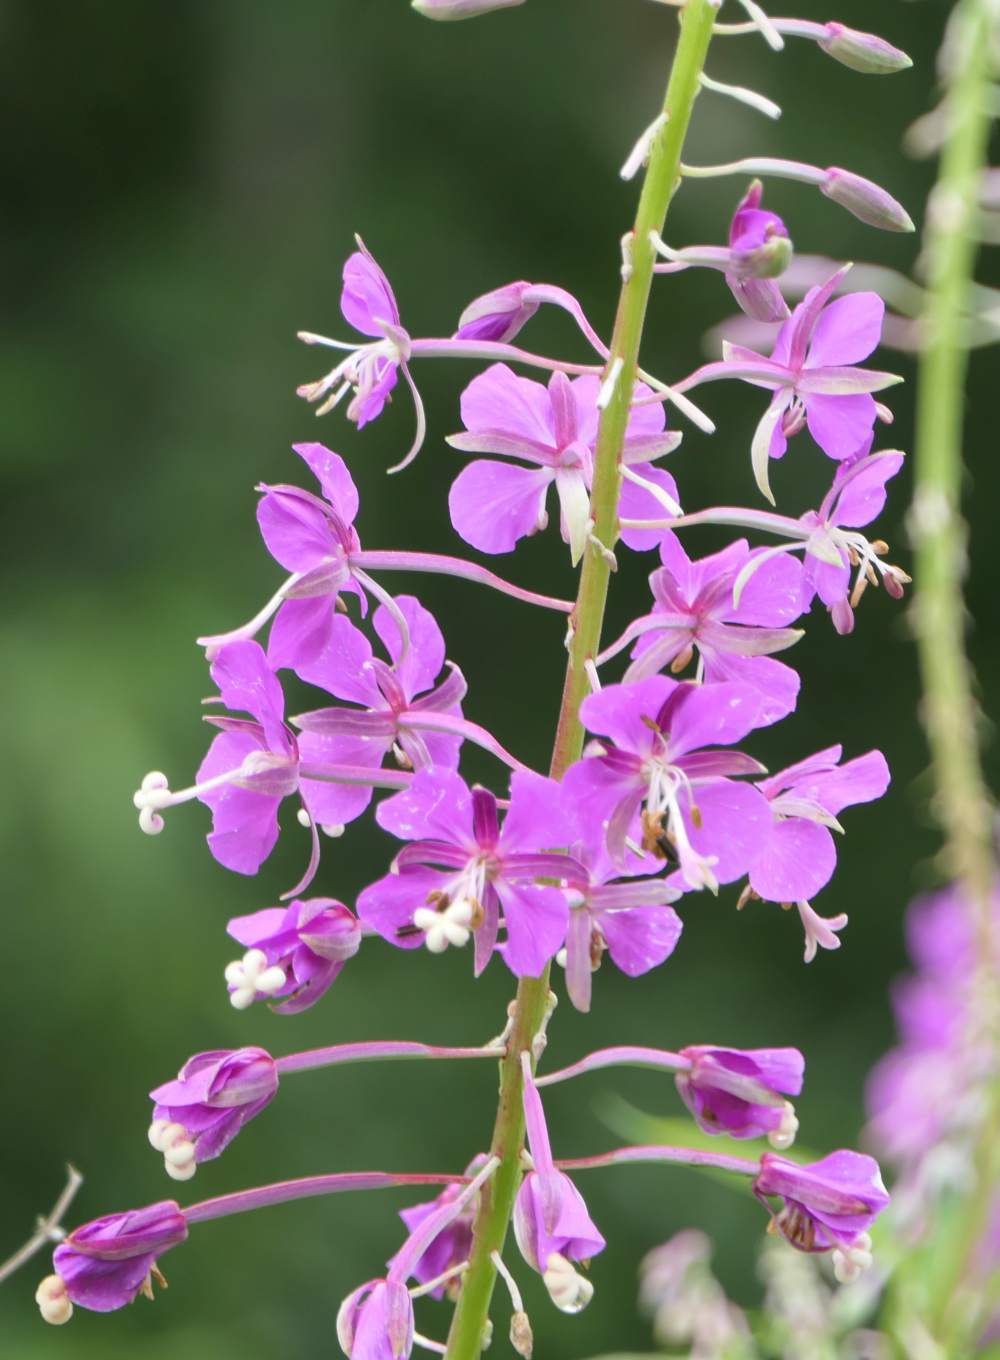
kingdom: Plantae
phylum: Tracheophyta
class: Magnoliopsida
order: Myrtales
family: Onagraceae
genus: Chamaenerion
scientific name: Chamaenerion angustifolium
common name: Fireweed
